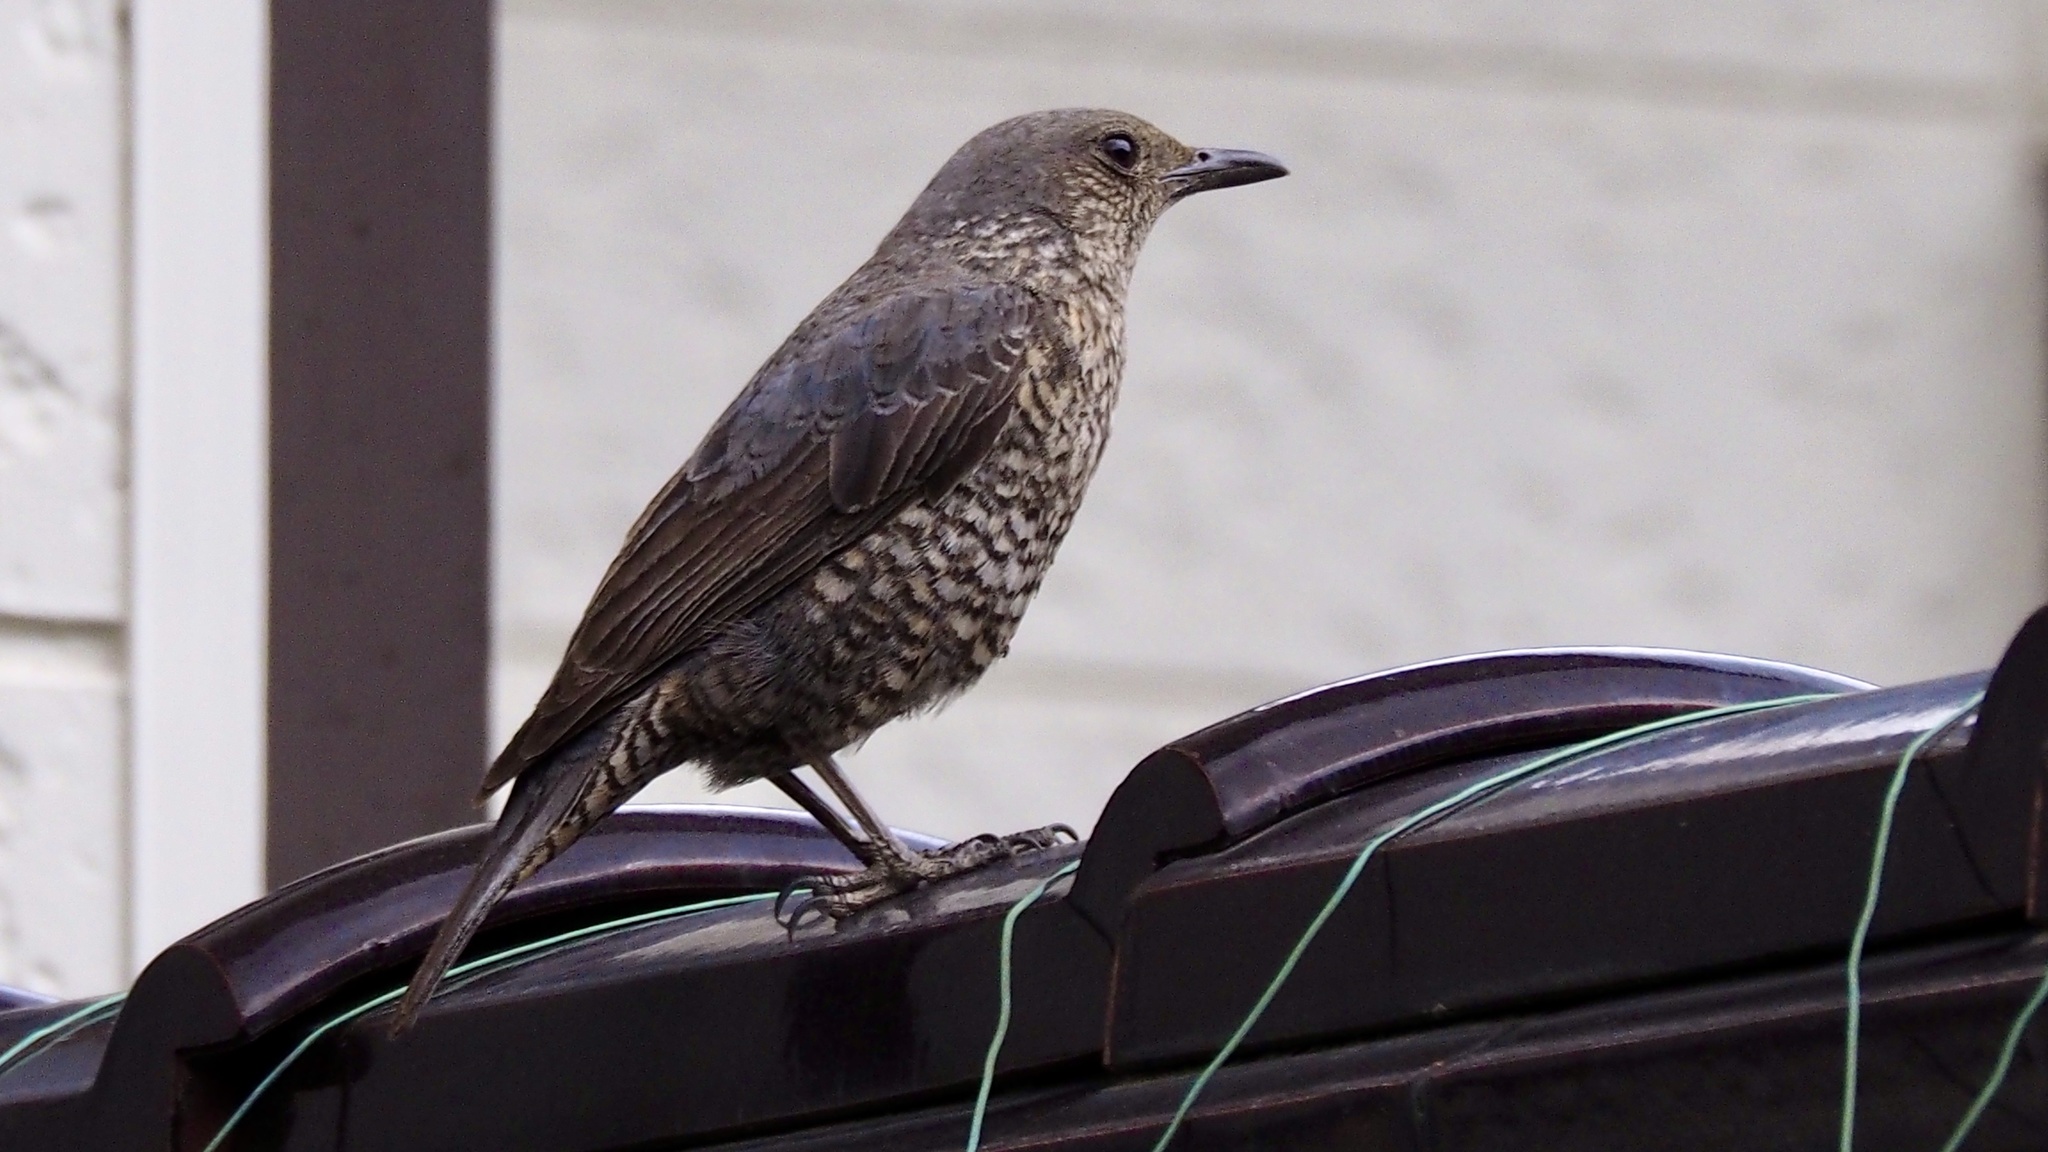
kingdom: Animalia
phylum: Chordata
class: Aves
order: Passeriformes
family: Muscicapidae
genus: Monticola
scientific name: Monticola solitarius
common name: Blue rock thrush
